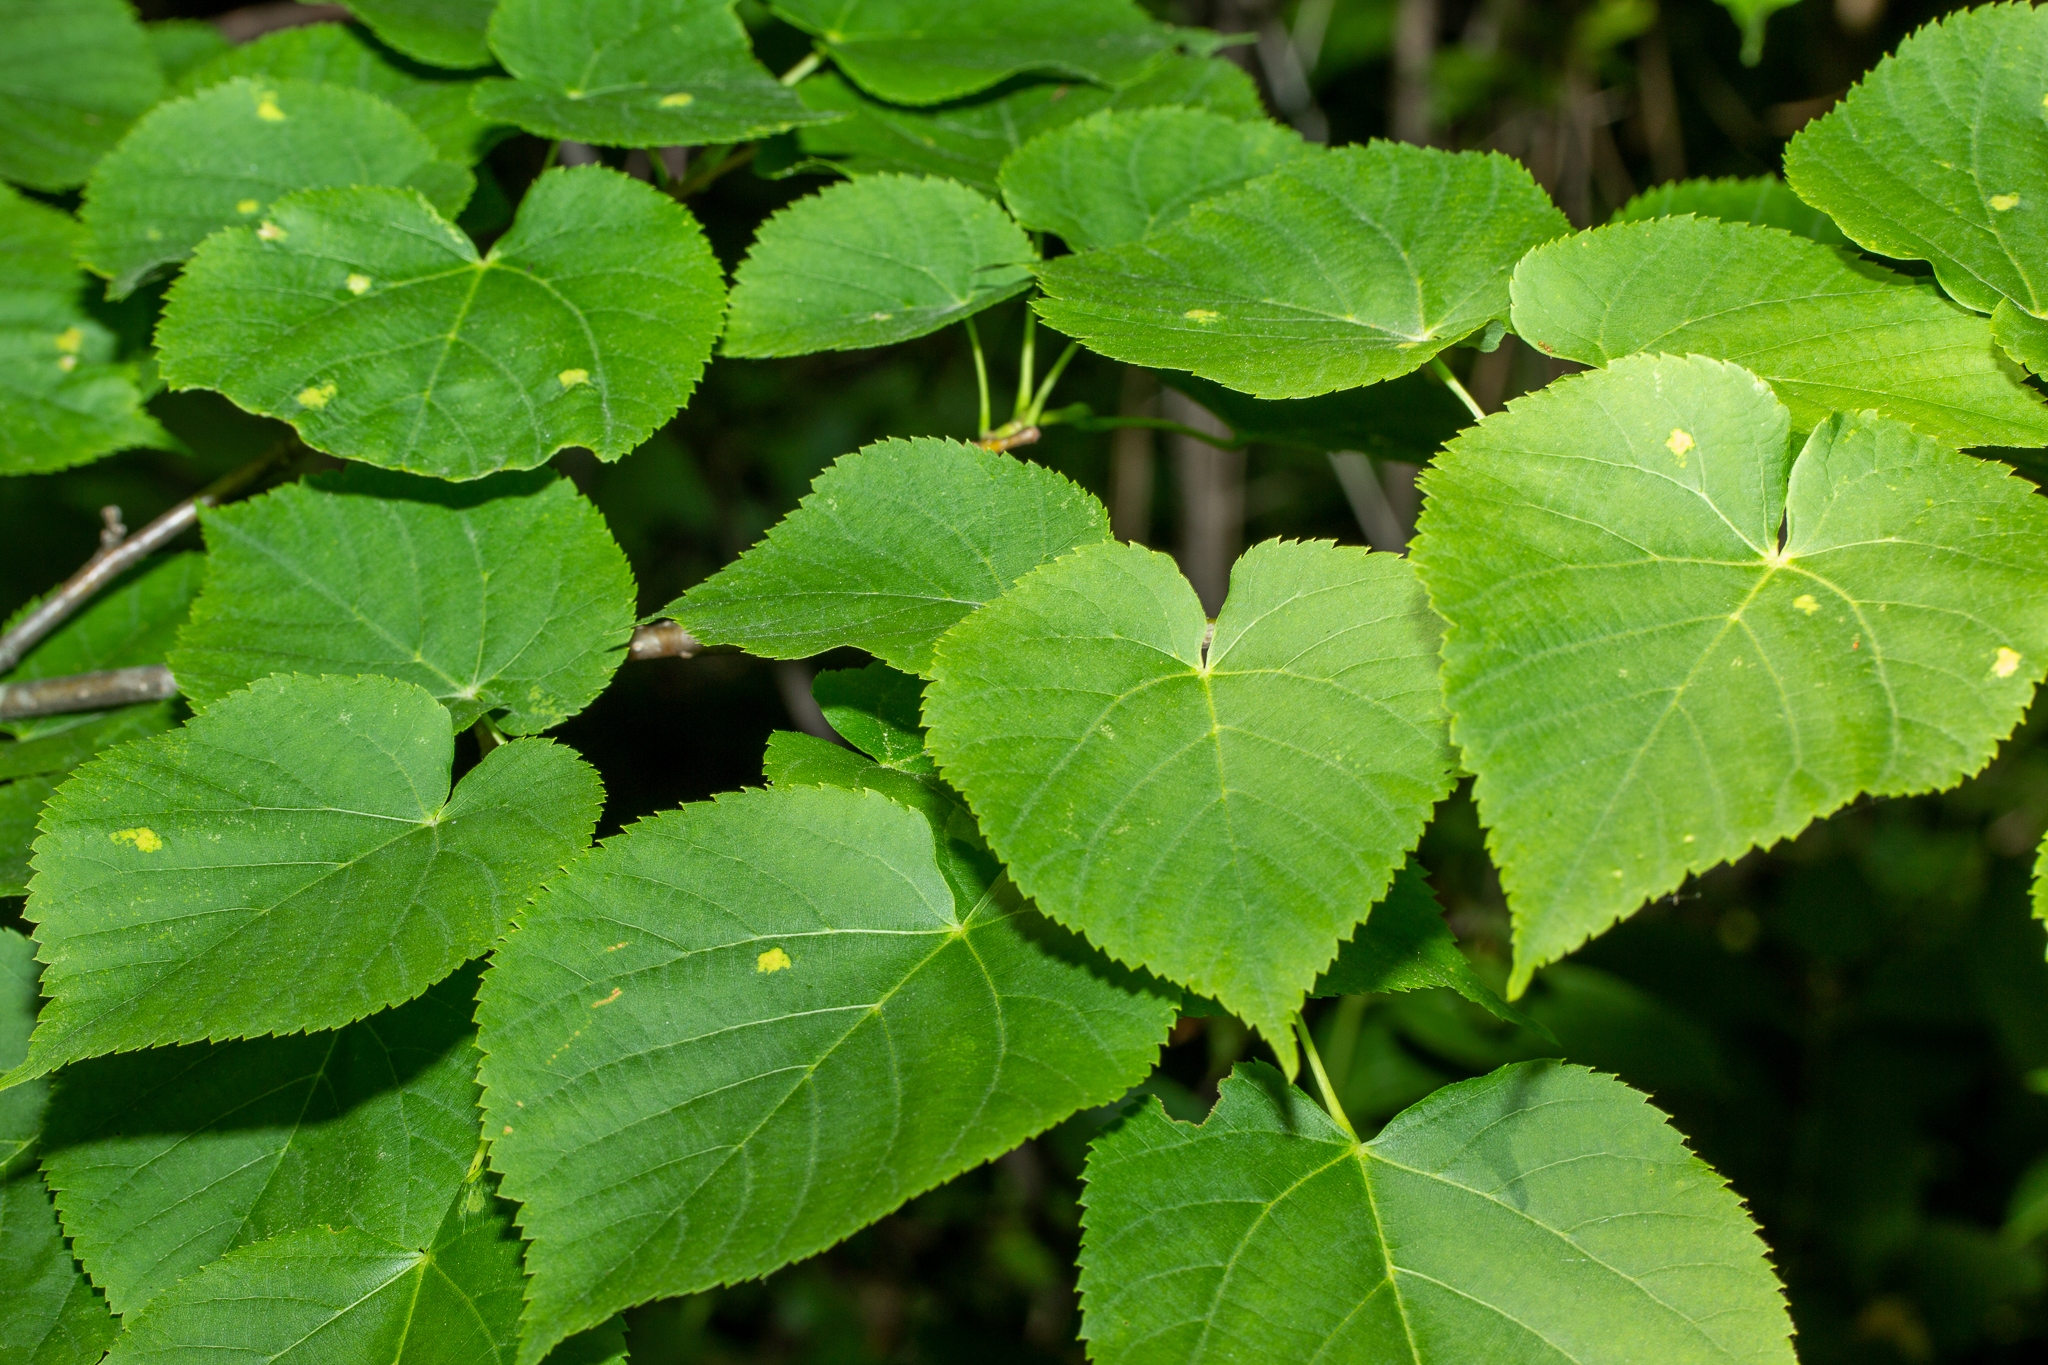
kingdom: Plantae
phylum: Tracheophyta
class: Magnoliopsida
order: Malvales
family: Malvaceae
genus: Tilia
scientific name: Tilia cordata
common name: Small-leaved lime
